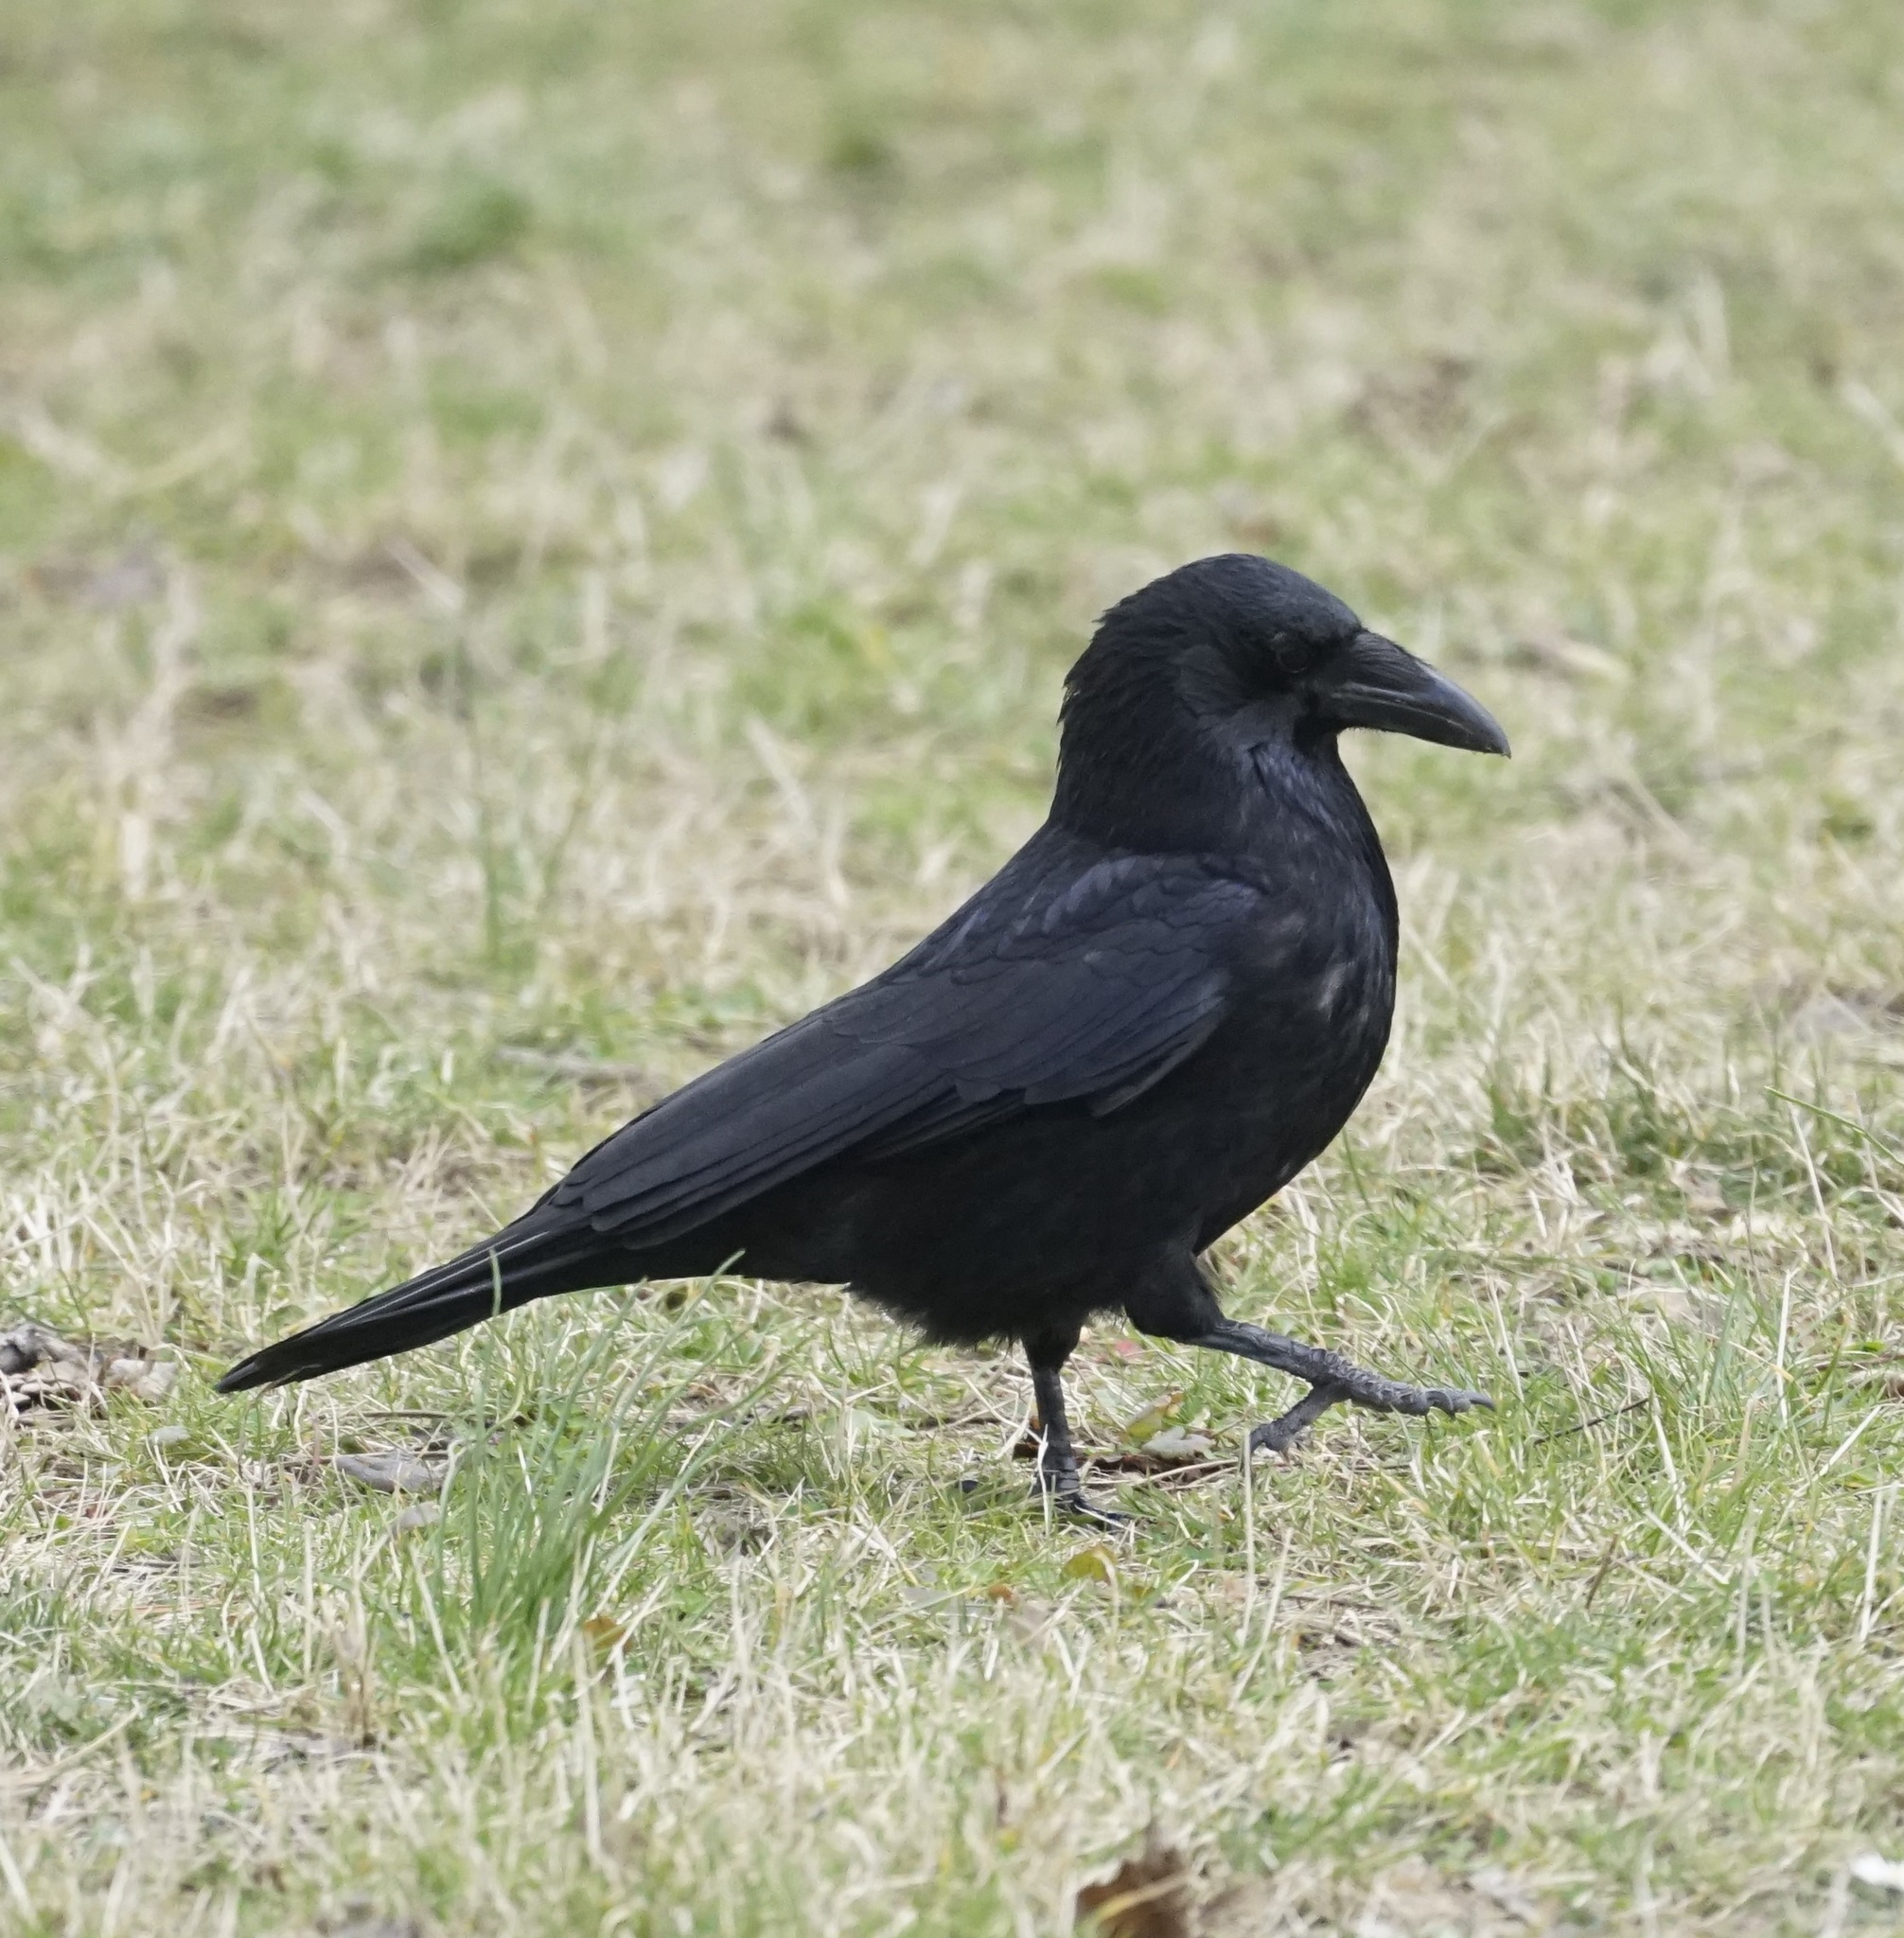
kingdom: Animalia
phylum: Chordata
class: Aves
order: Passeriformes
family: Corvidae
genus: Corvus
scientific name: Corvus corone
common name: Carrion crow
